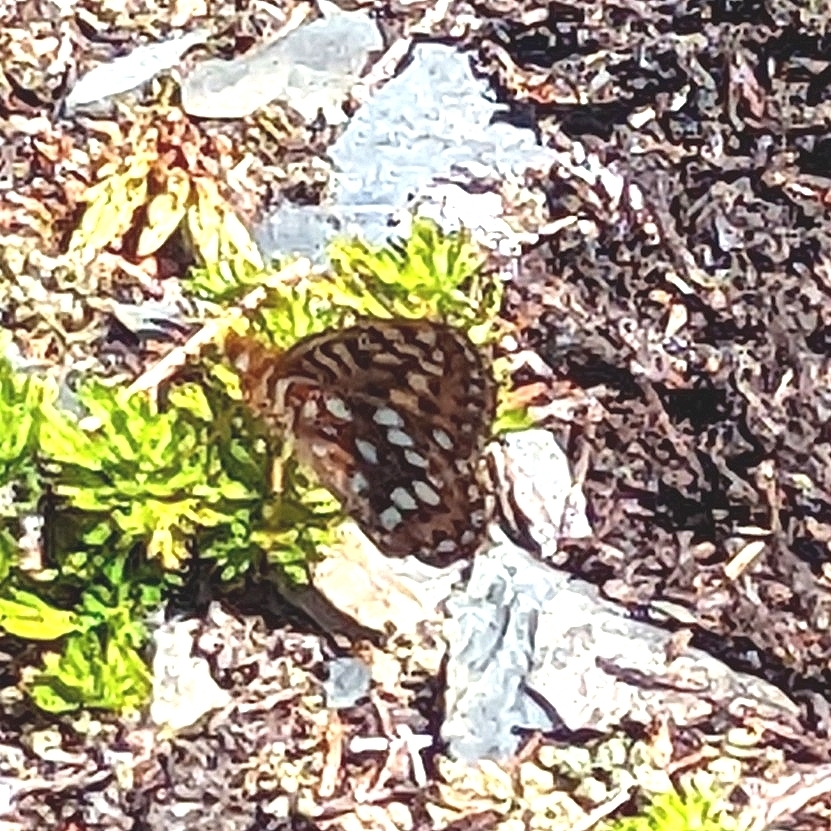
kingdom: Animalia
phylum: Arthropoda
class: Insecta
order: Lepidoptera
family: Nymphalidae
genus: Speyeria
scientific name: Speyeria hydaspe
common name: Hydaspe fritillary
